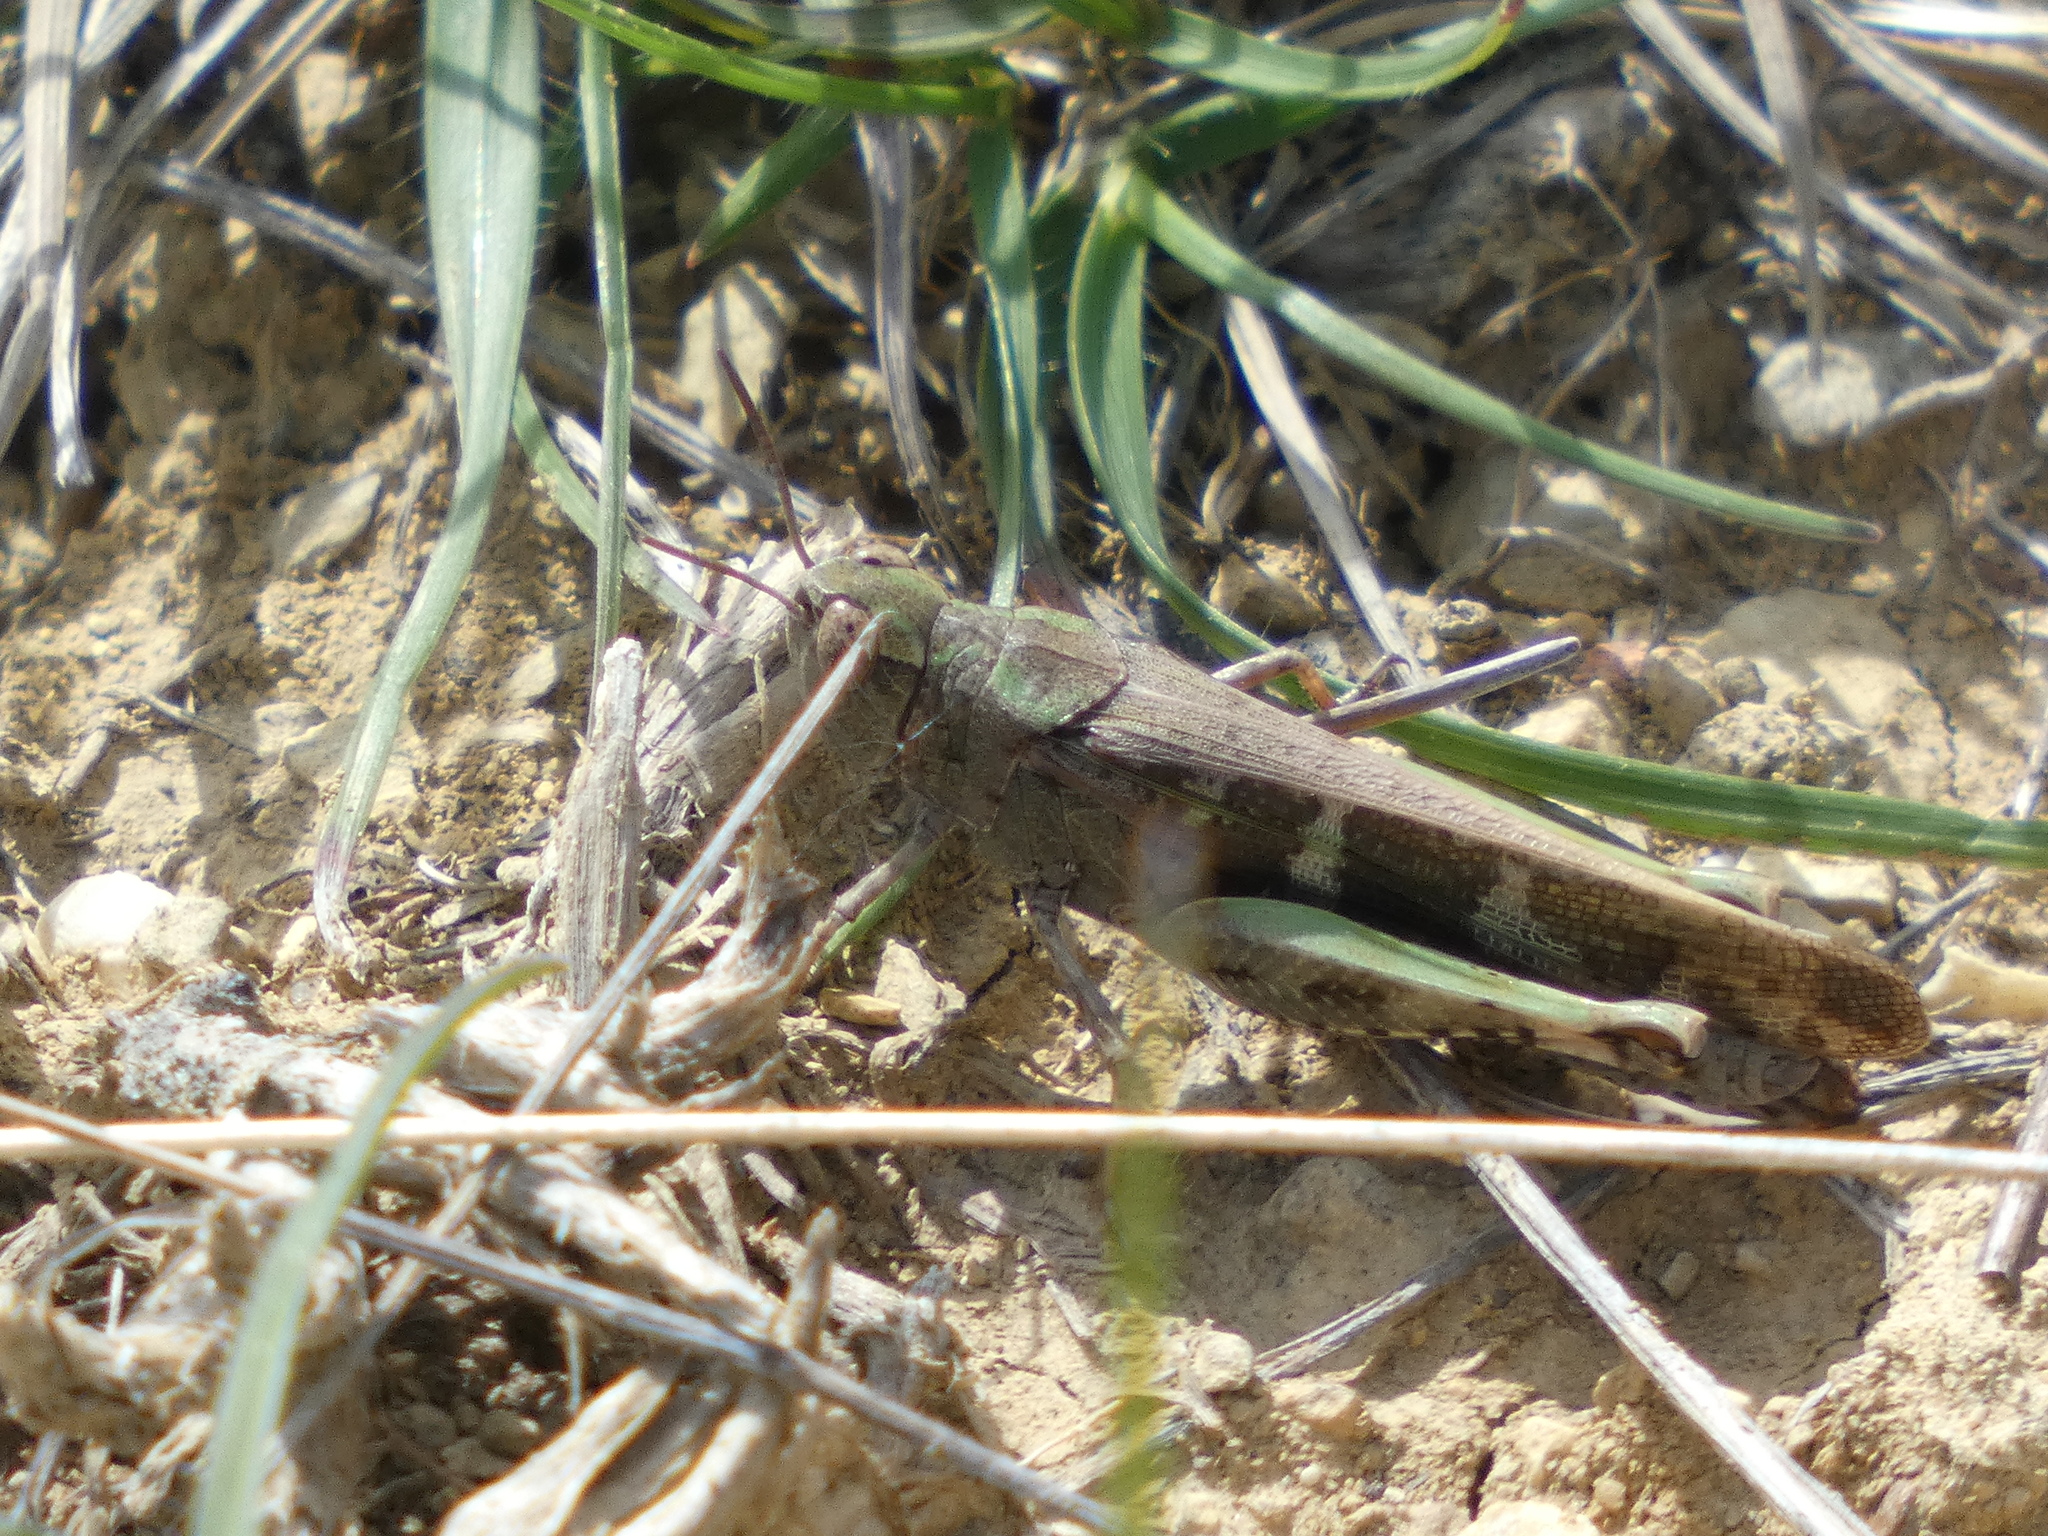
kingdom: Animalia
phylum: Arthropoda
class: Insecta
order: Orthoptera
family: Acrididae
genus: Aiolopus
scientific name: Aiolopus strepens
